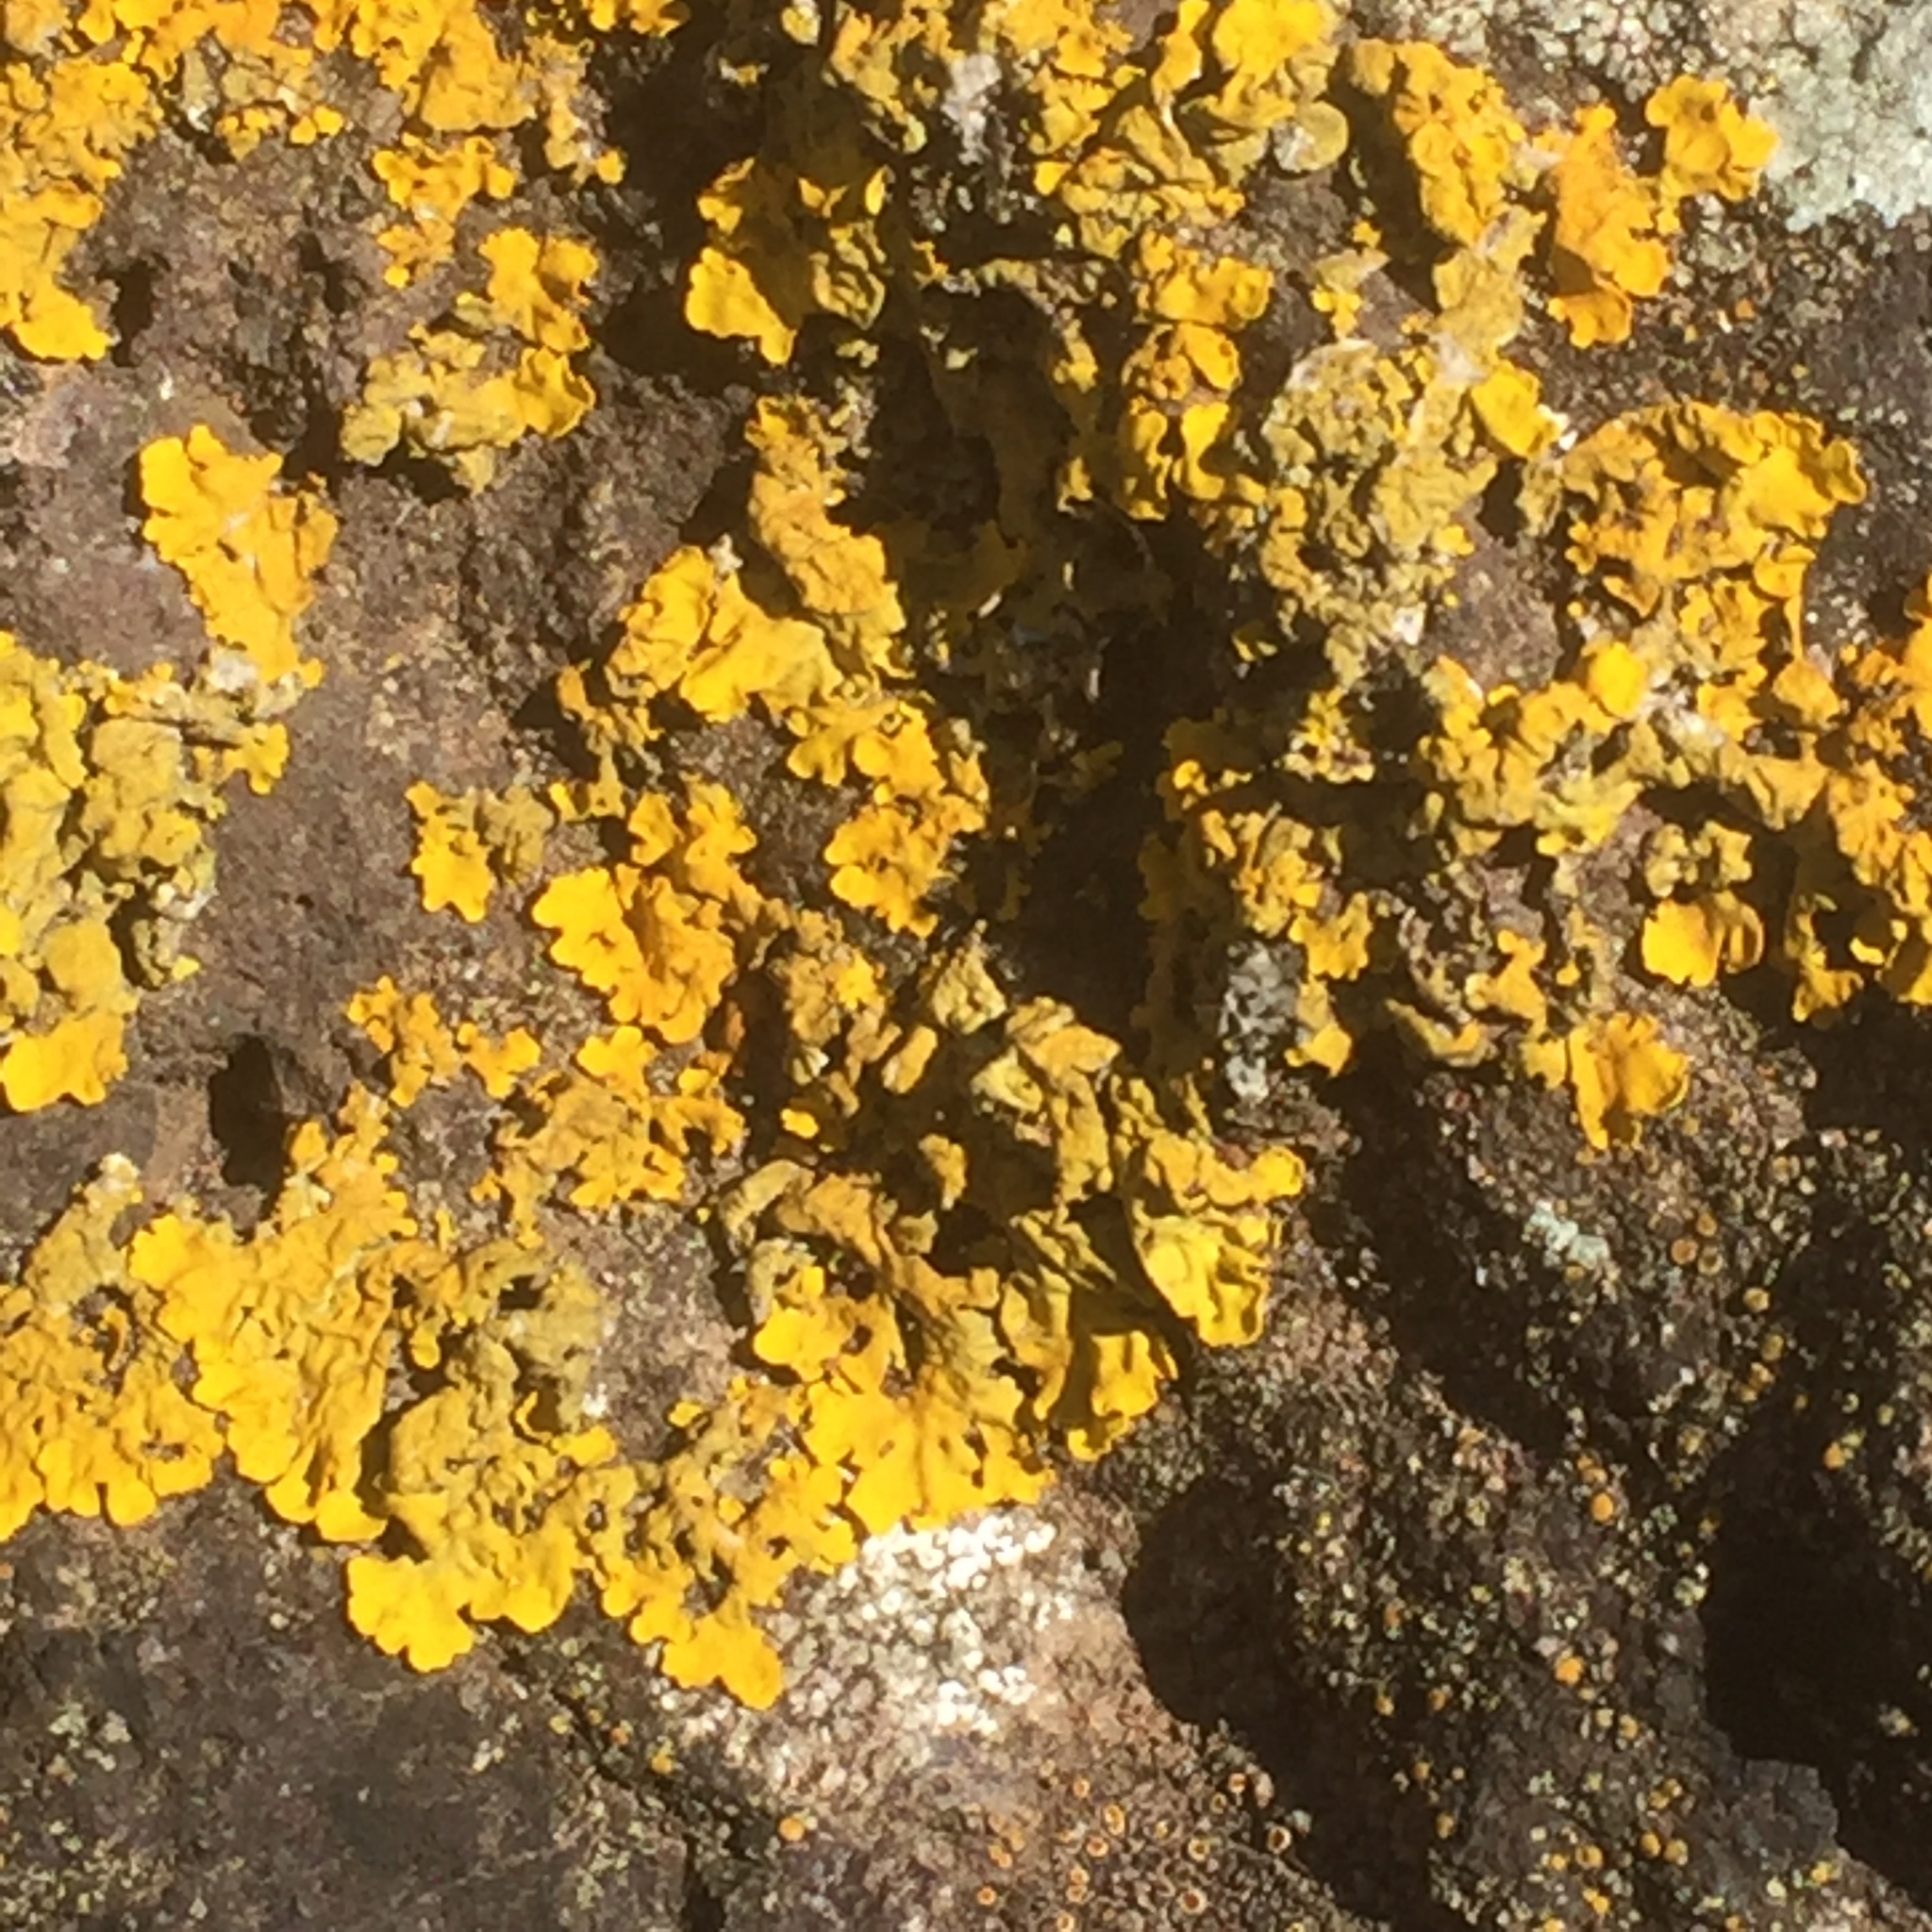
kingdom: Fungi
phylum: Ascomycota
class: Lecanoromycetes
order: Teloschistales
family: Teloschistaceae
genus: Xanthoria
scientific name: Xanthoria parietina
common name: Common orange lichen
